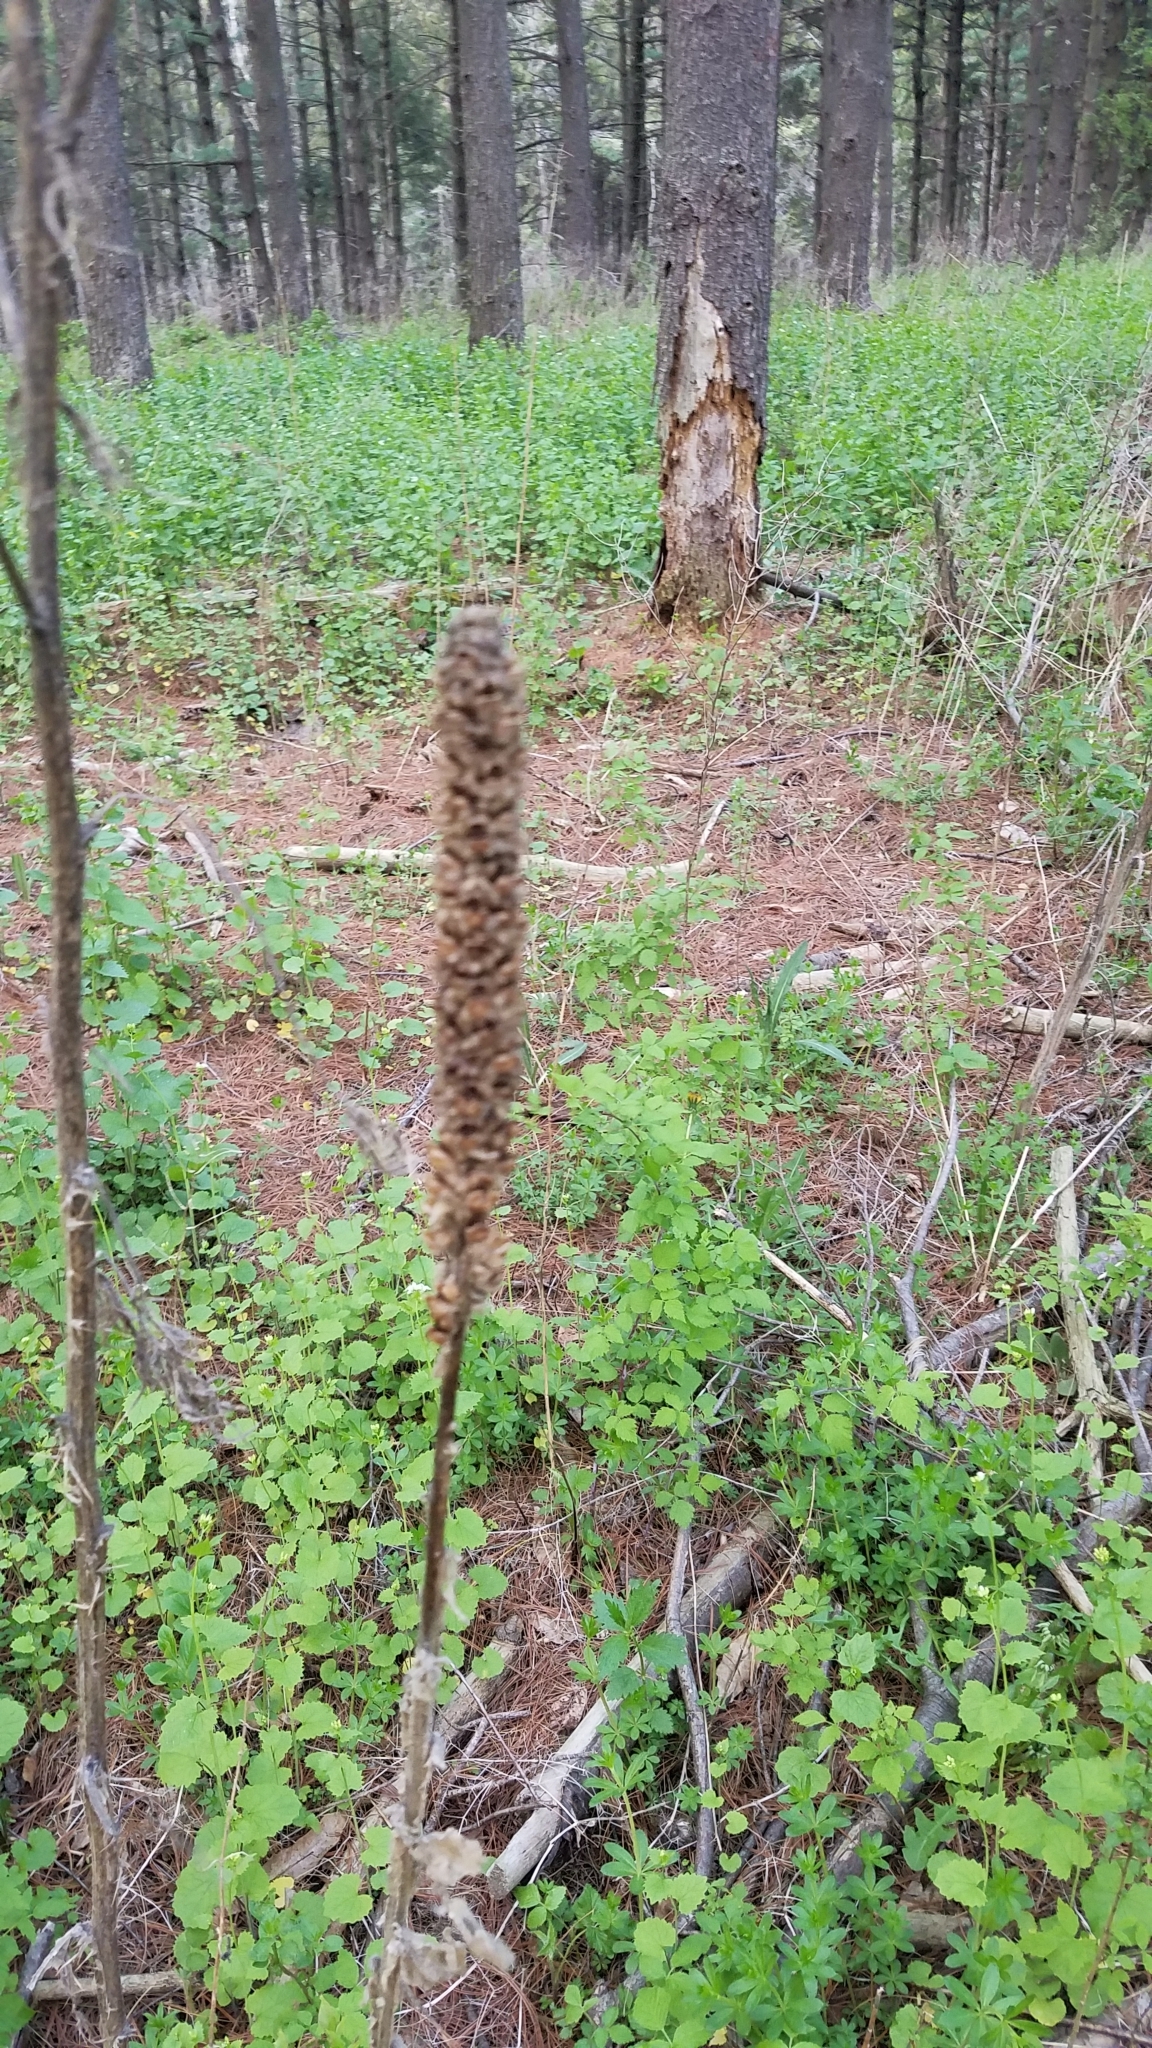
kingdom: Plantae
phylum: Tracheophyta
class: Magnoliopsida
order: Lamiales
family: Scrophulariaceae
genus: Verbascum
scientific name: Verbascum thapsus
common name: Common mullein
